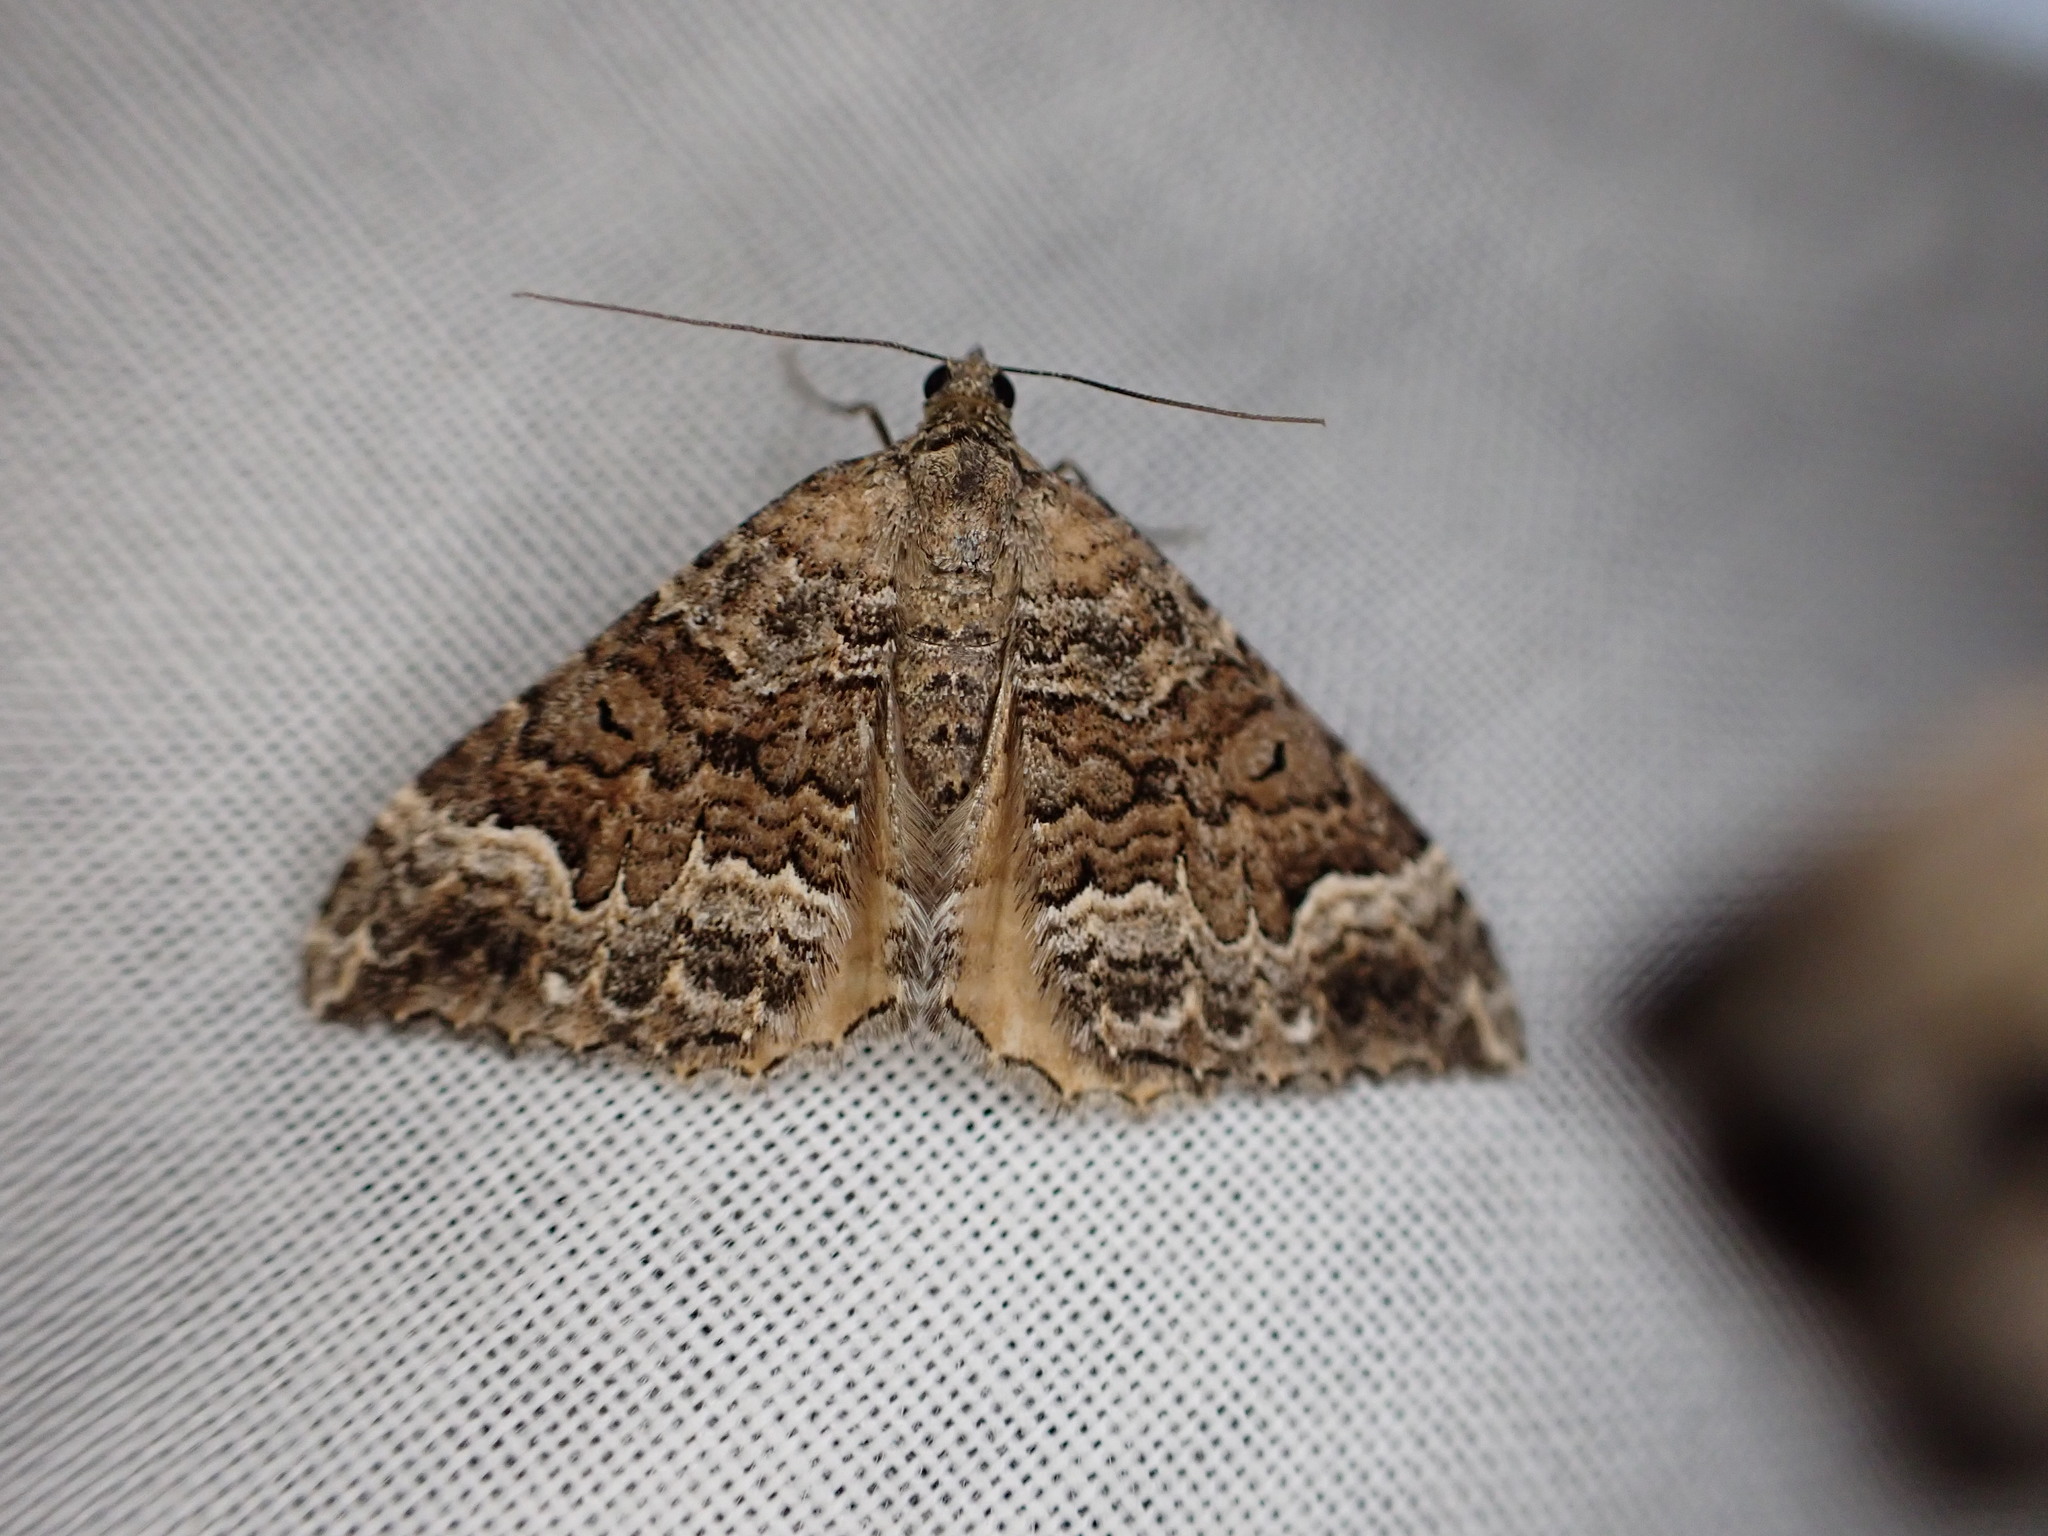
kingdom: Animalia
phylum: Arthropoda
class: Insecta
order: Lepidoptera
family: Geometridae
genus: Hydriomena
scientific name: Hydriomena deltoidata
